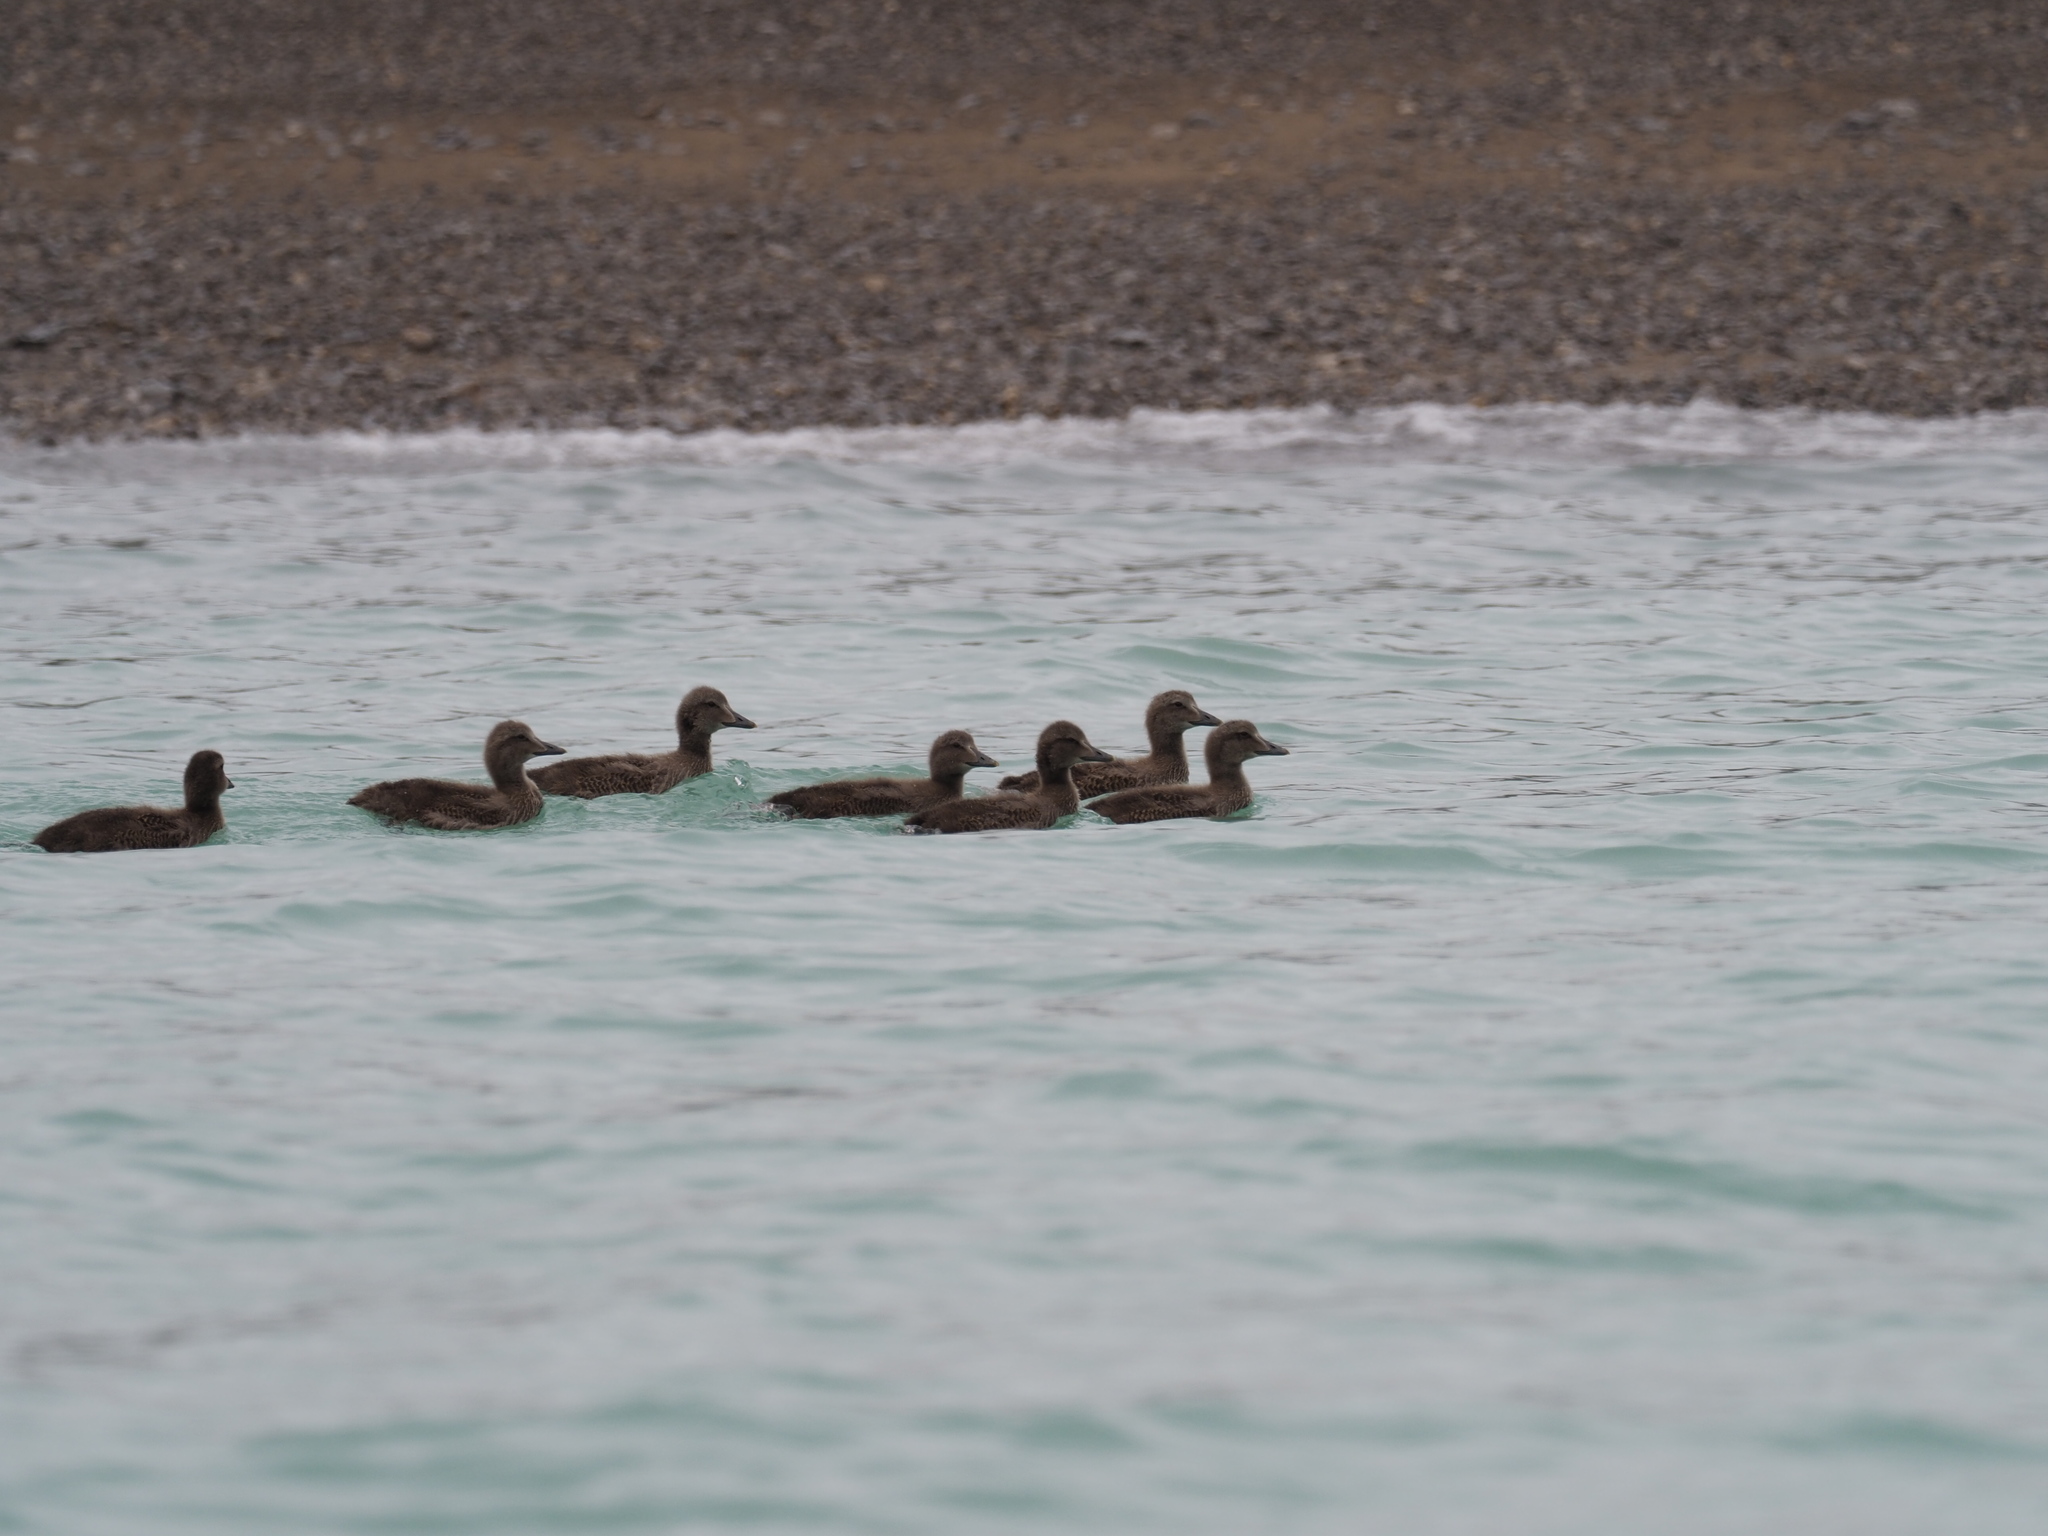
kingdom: Animalia
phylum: Chordata
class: Aves
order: Anseriformes
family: Anatidae
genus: Somateria
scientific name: Somateria spectabilis
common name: King eider
